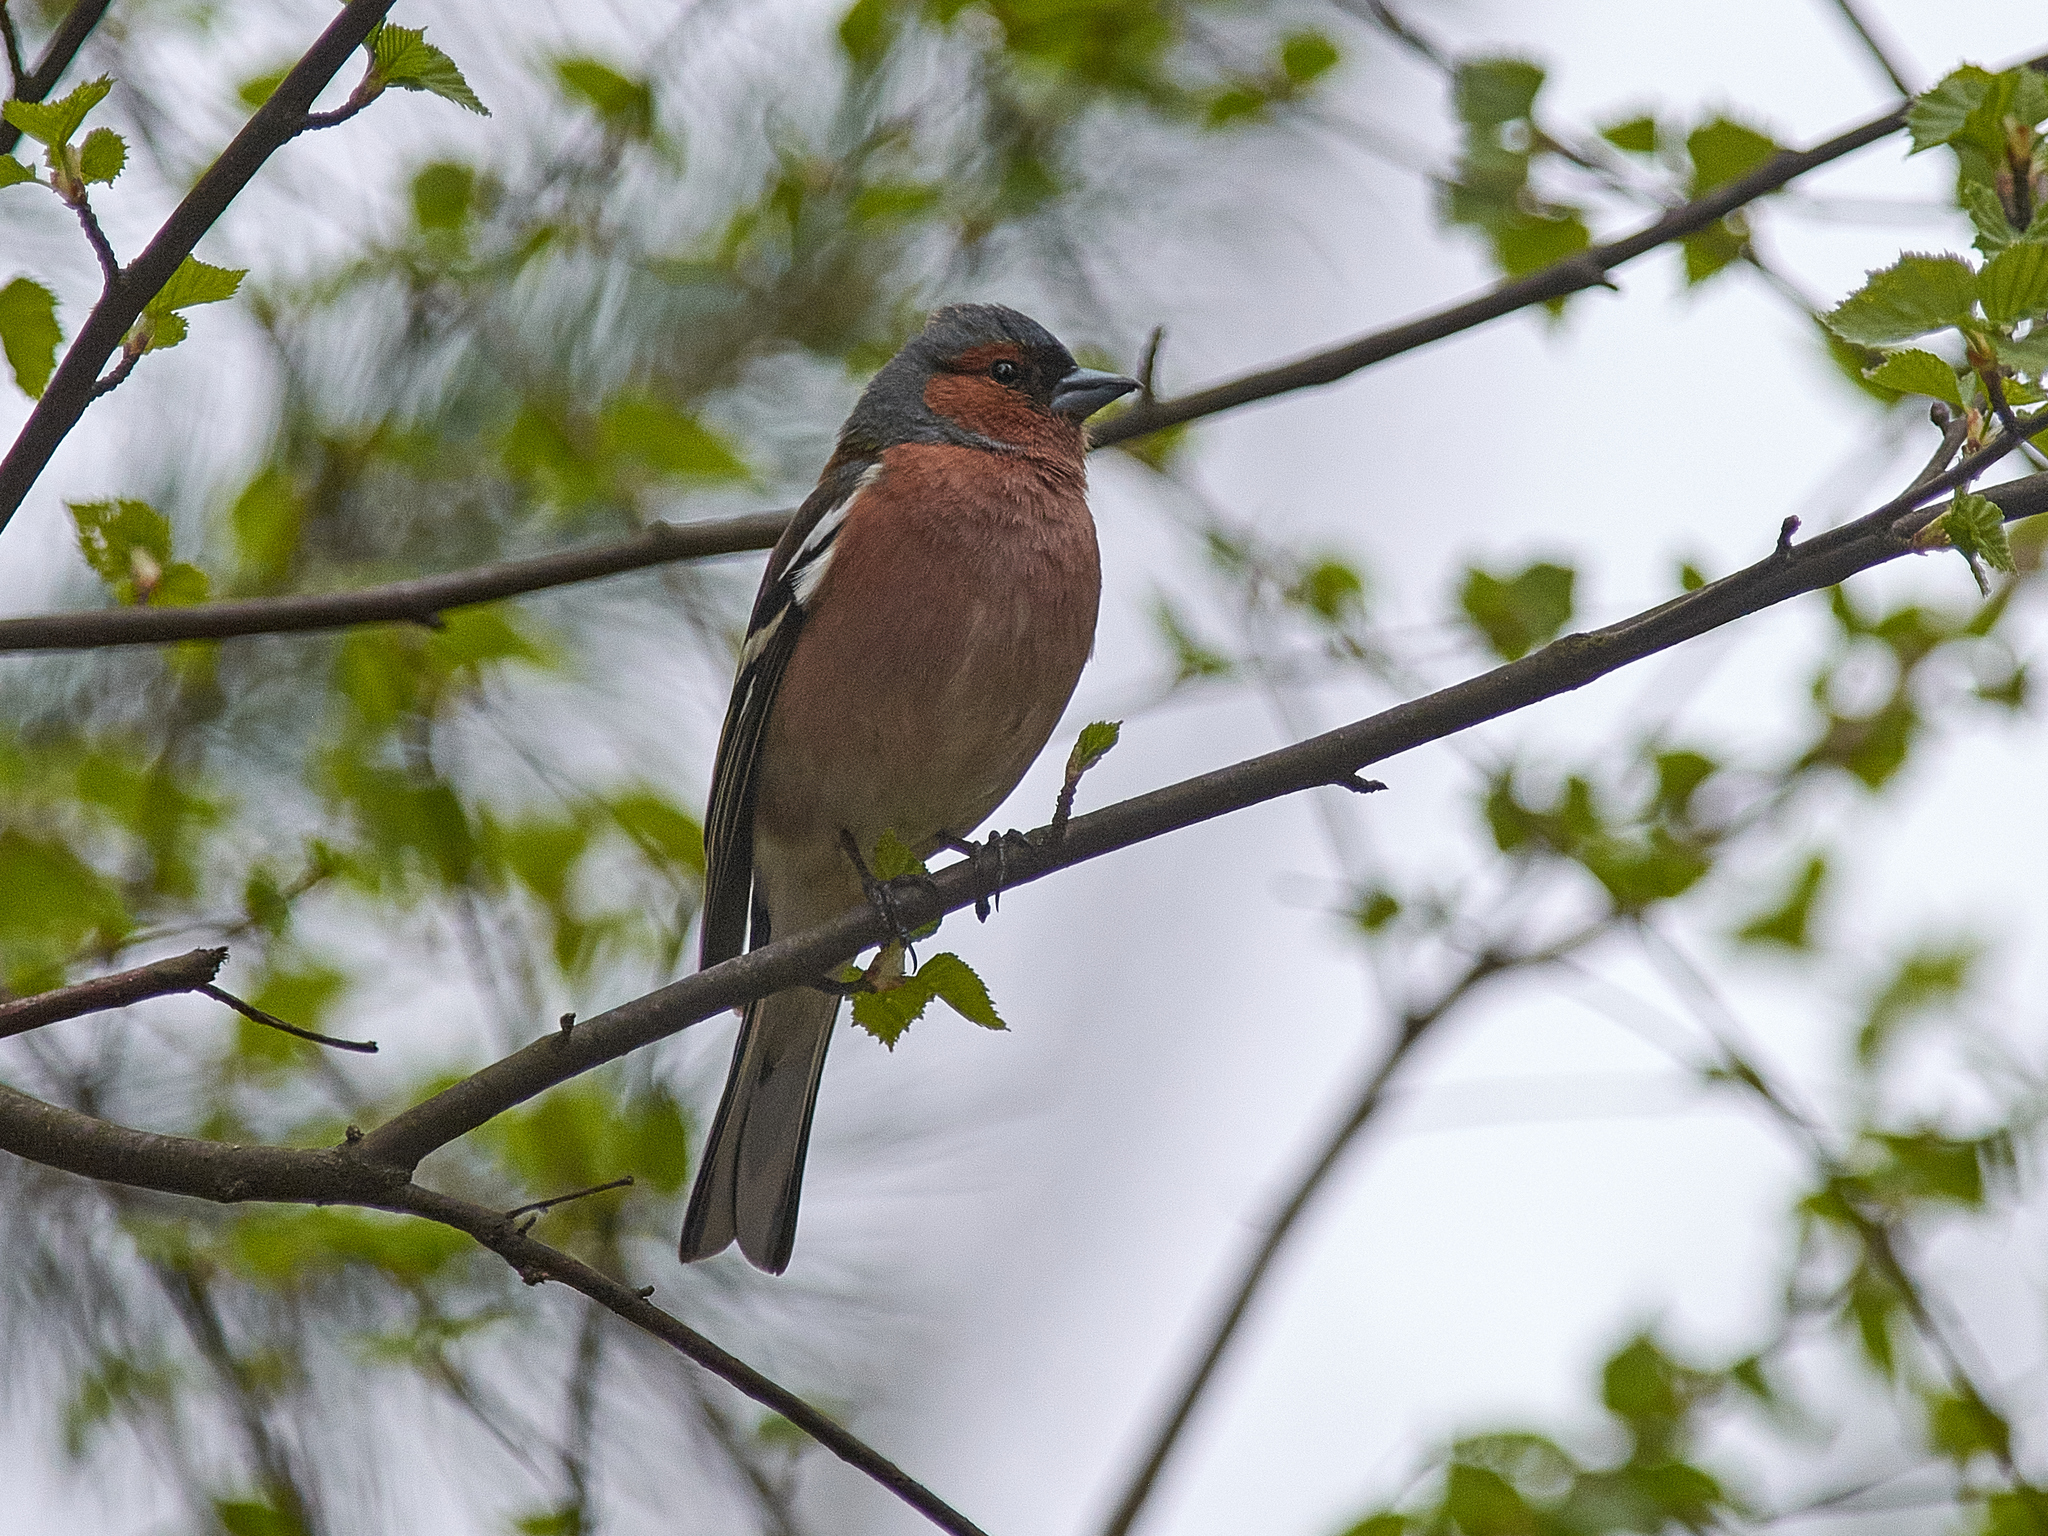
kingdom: Animalia
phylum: Chordata
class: Aves
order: Passeriformes
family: Fringillidae
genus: Fringilla
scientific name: Fringilla coelebs
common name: Common chaffinch
